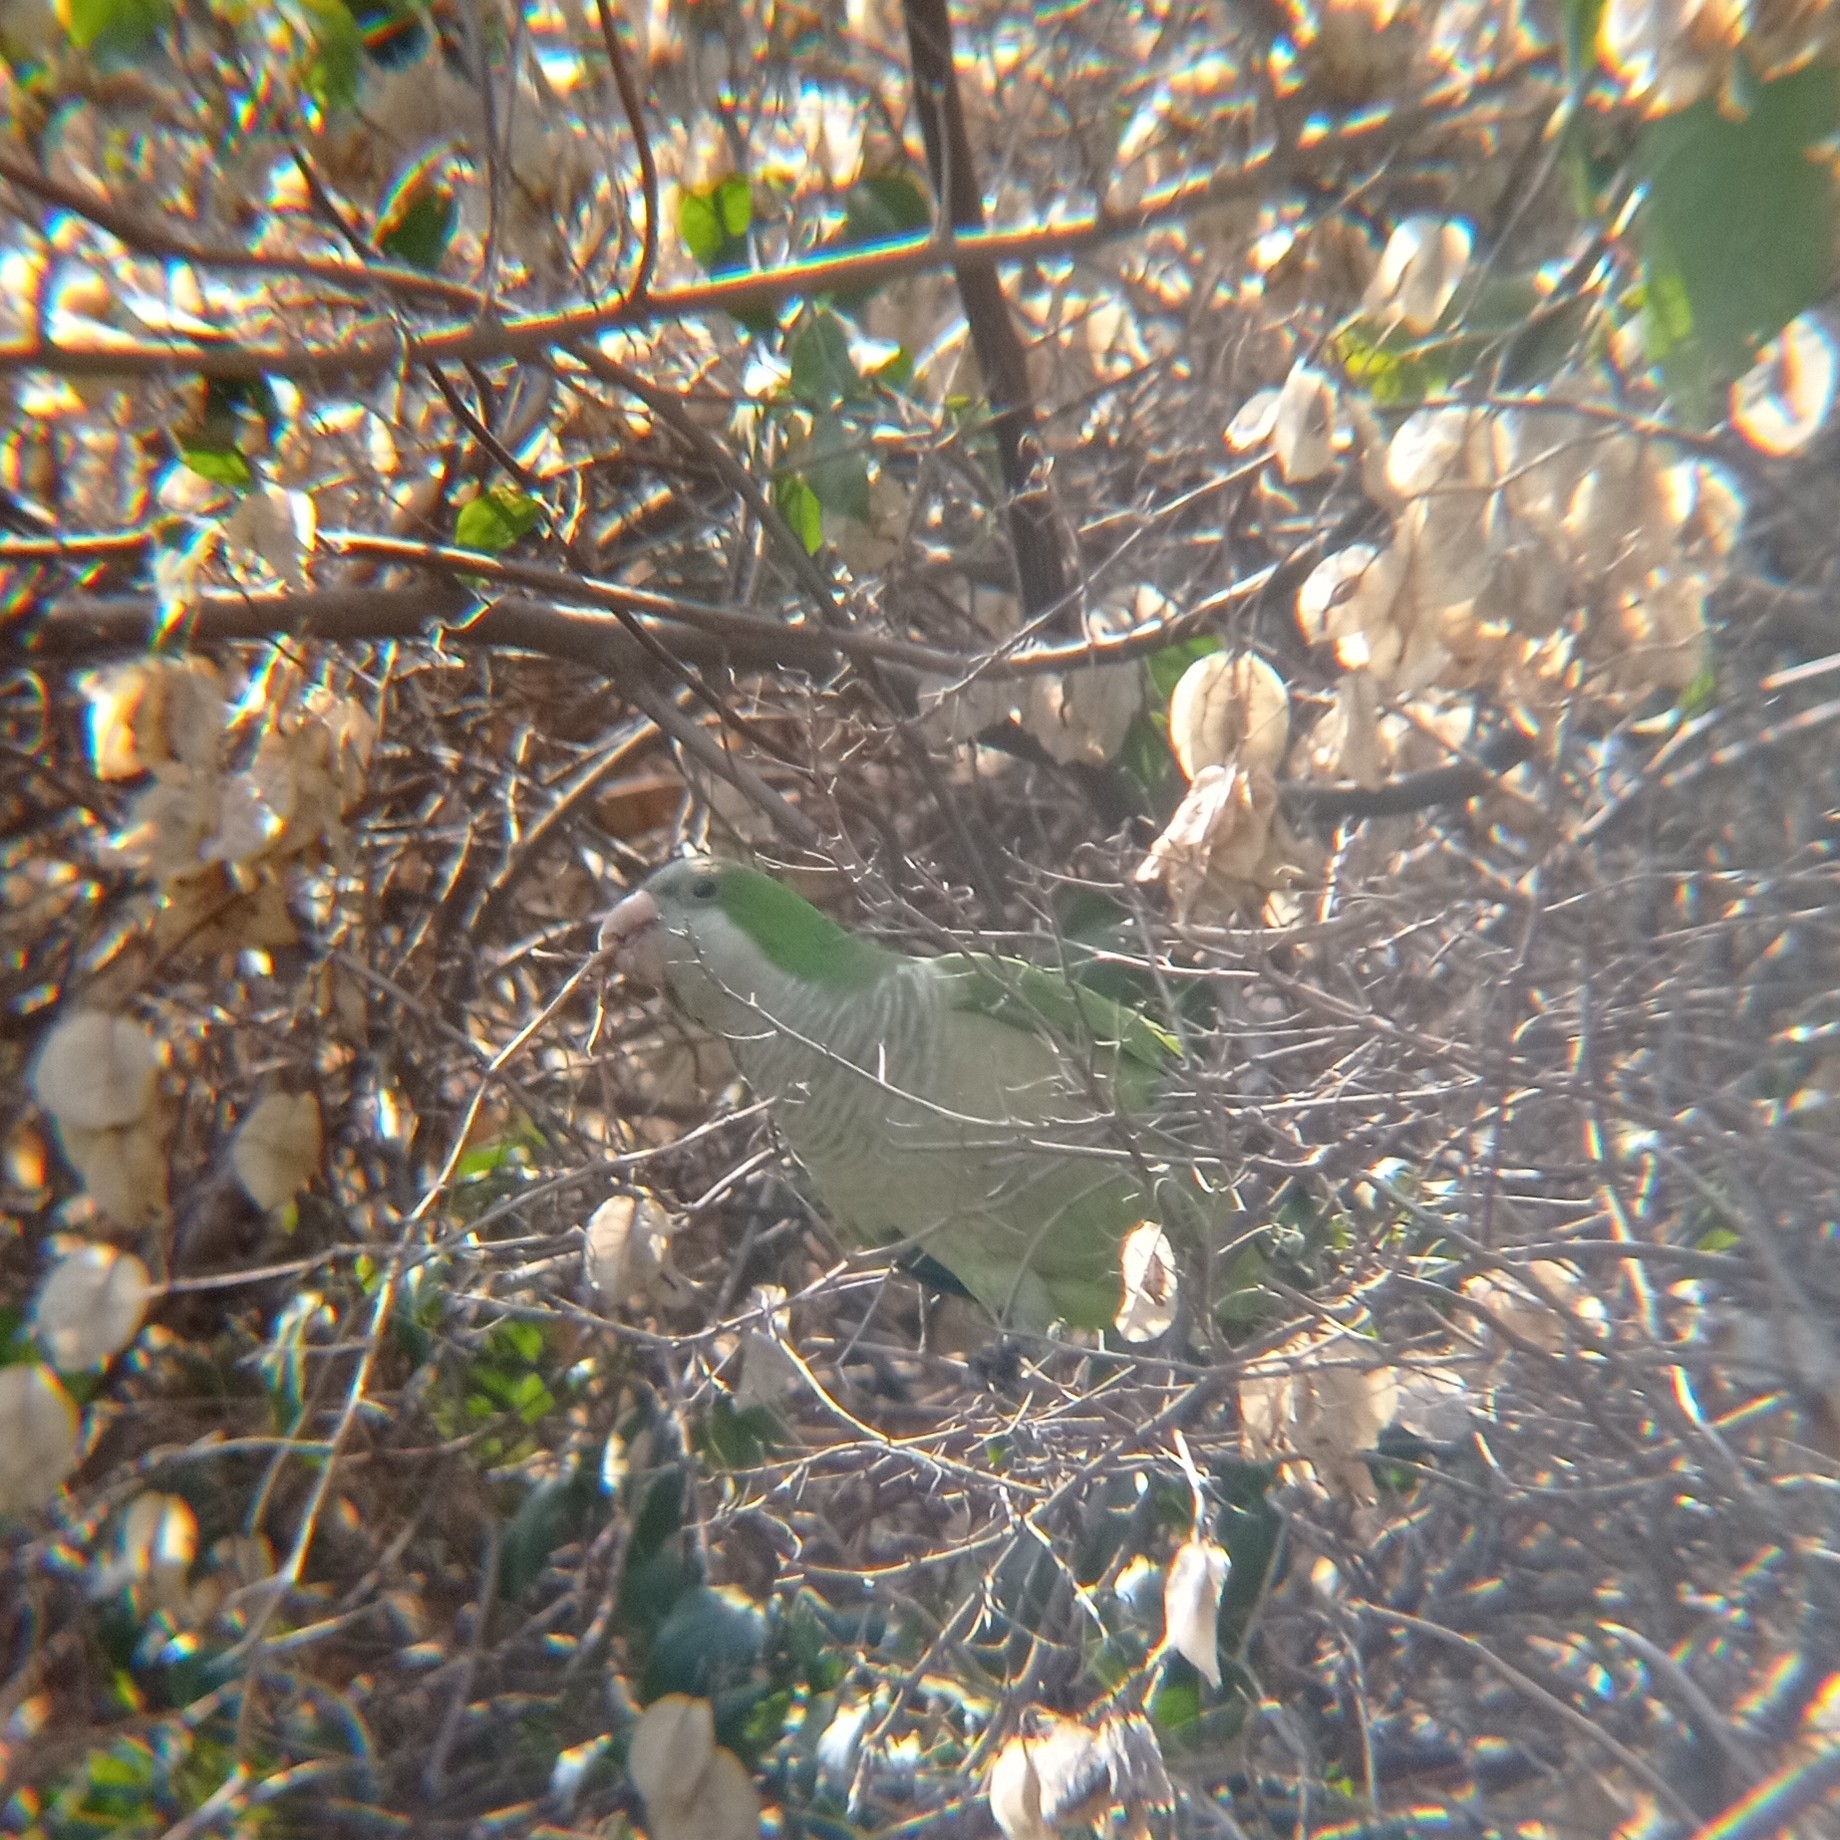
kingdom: Animalia
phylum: Chordata
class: Aves
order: Psittaciformes
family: Psittacidae
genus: Myiopsitta
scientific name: Myiopsitta monachus
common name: Monk parakeet
